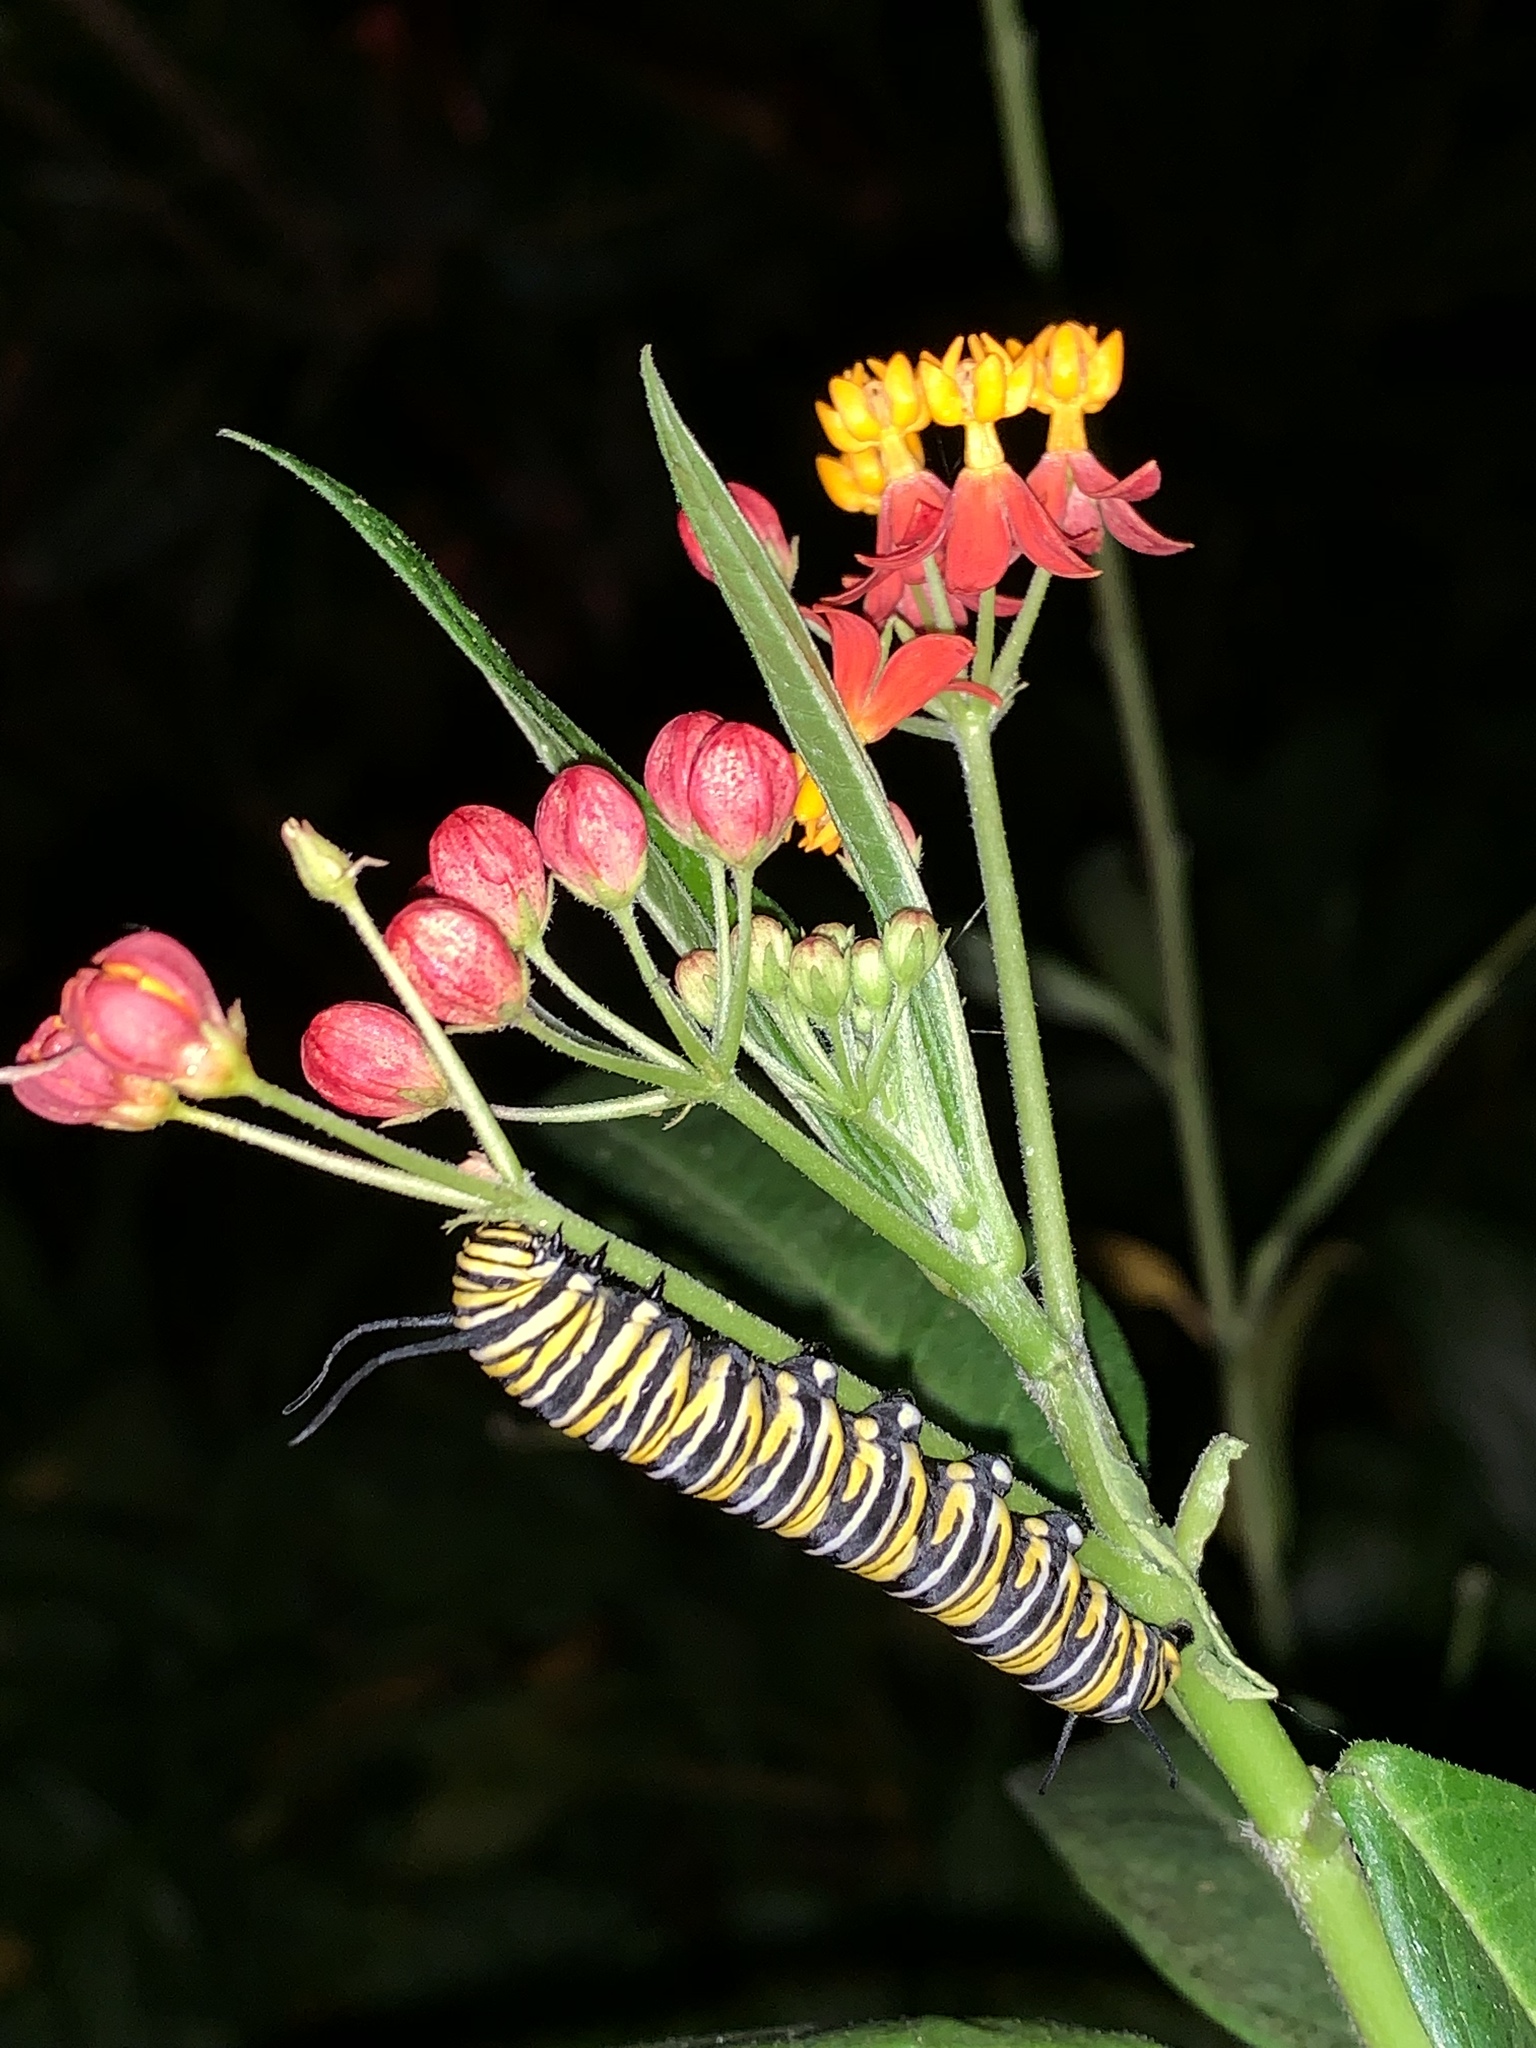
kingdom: Animalia
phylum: Arthropoda
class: Insecta
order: Lepidoptera
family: Nymphalidae
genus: Danaus
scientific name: Danaus plexippus
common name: Monarch
